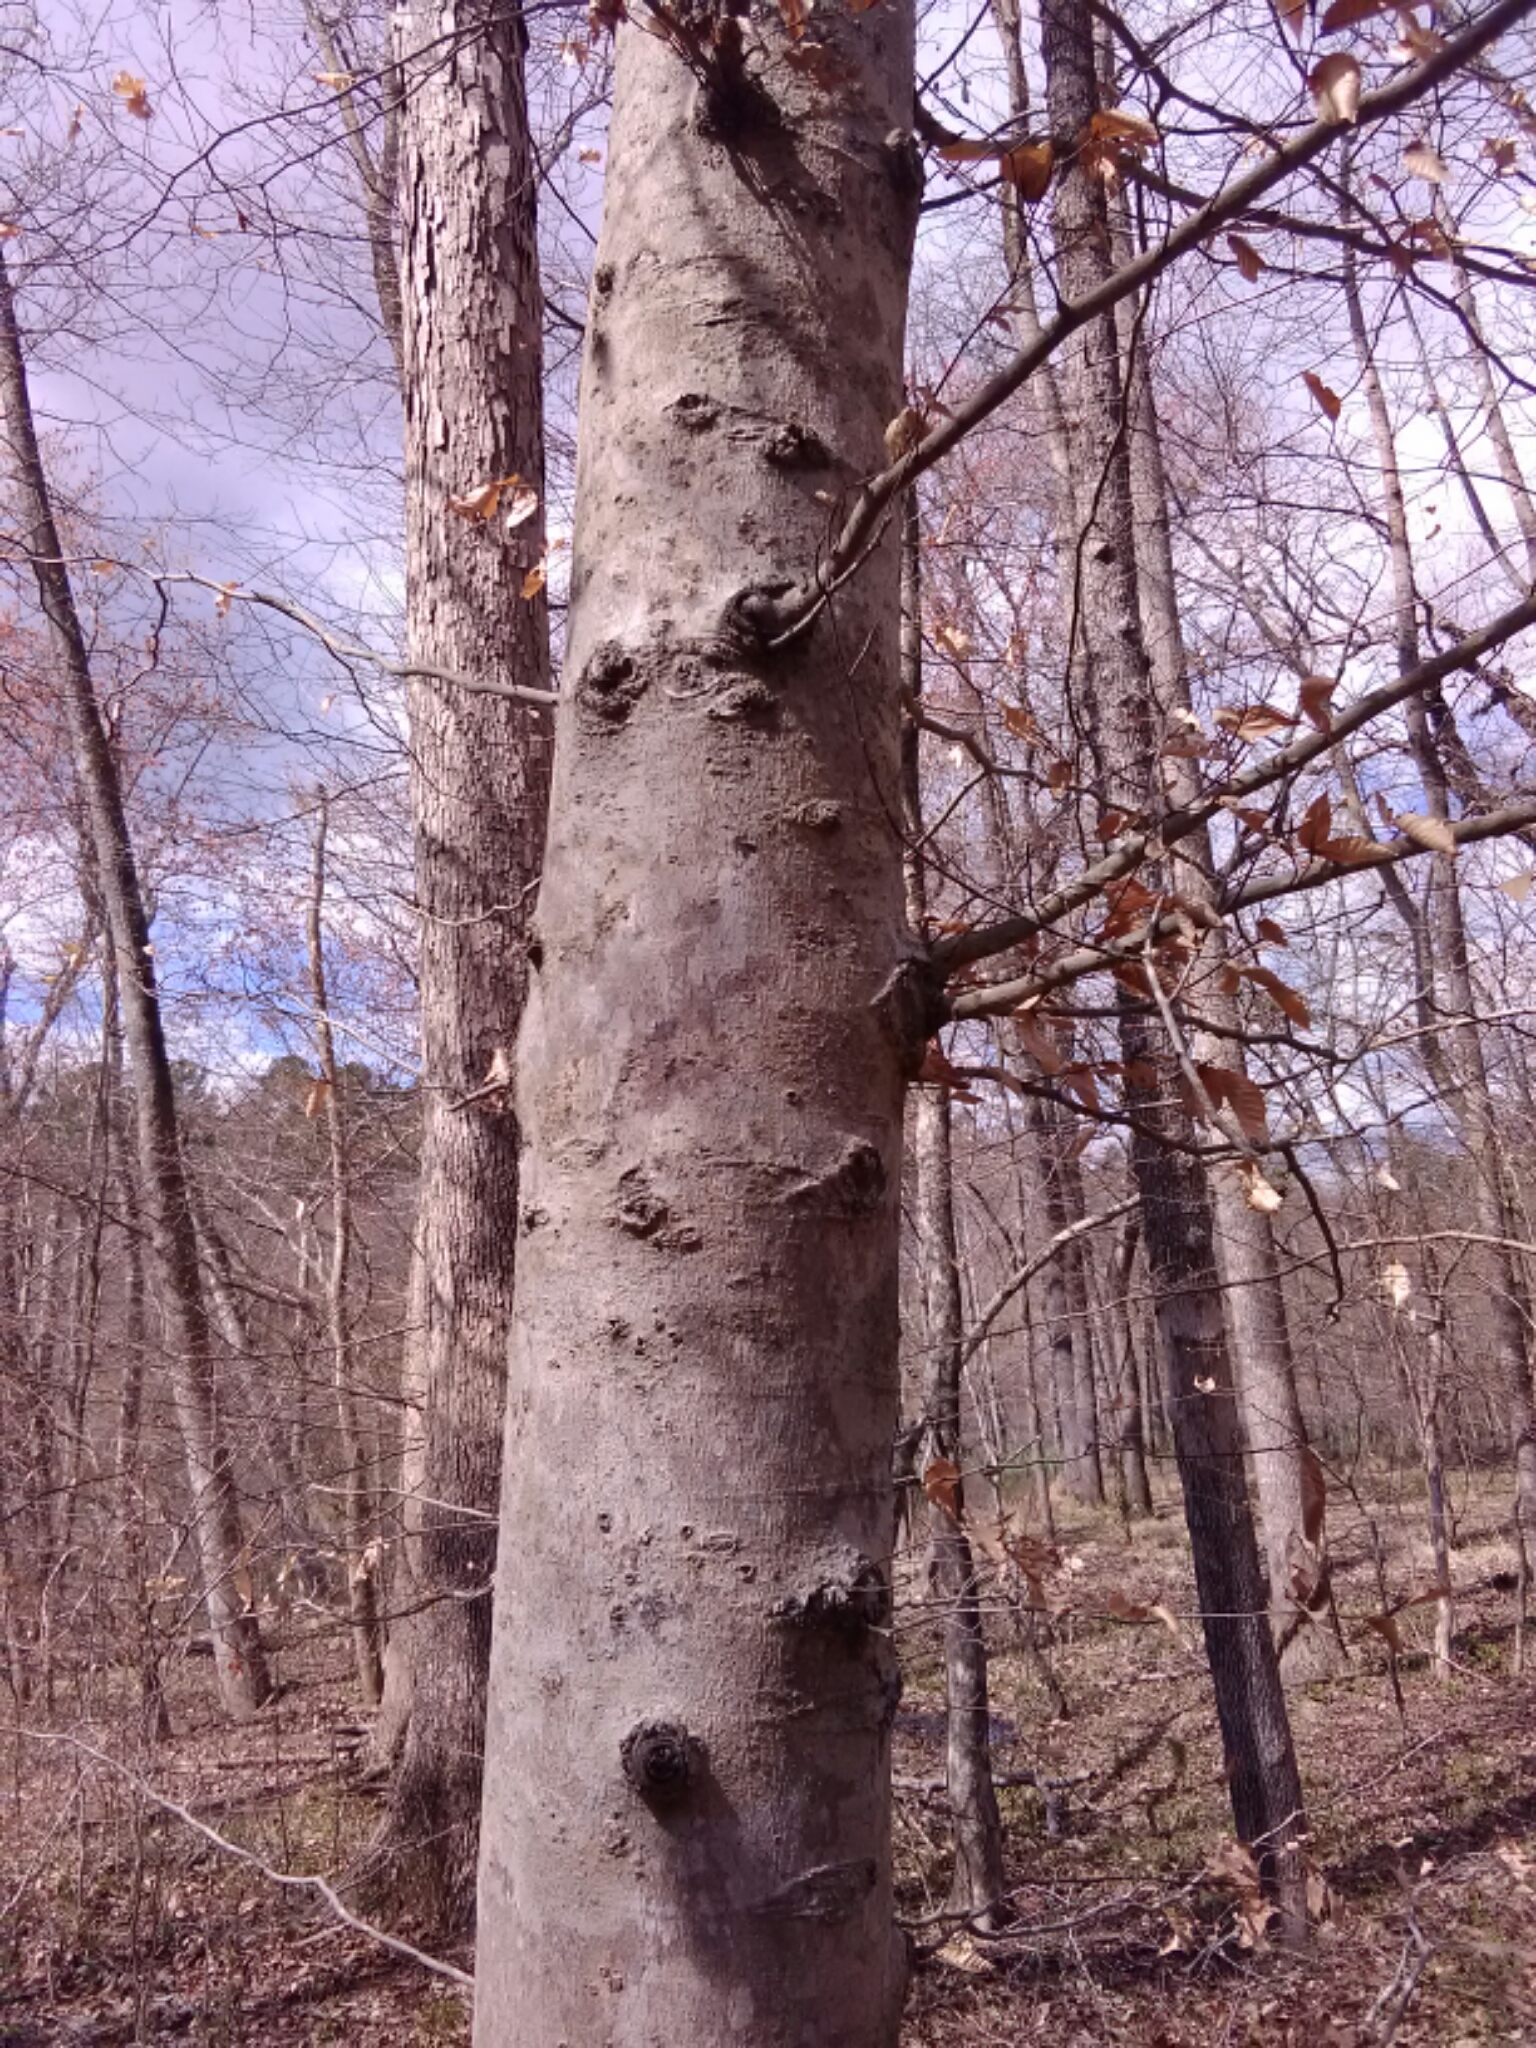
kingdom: Plantae
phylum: Tracheophyta
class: Magnoliopsida
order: Fagales
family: Fagaceae
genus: Fagus
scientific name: Fagus grandifolia
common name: American beech
